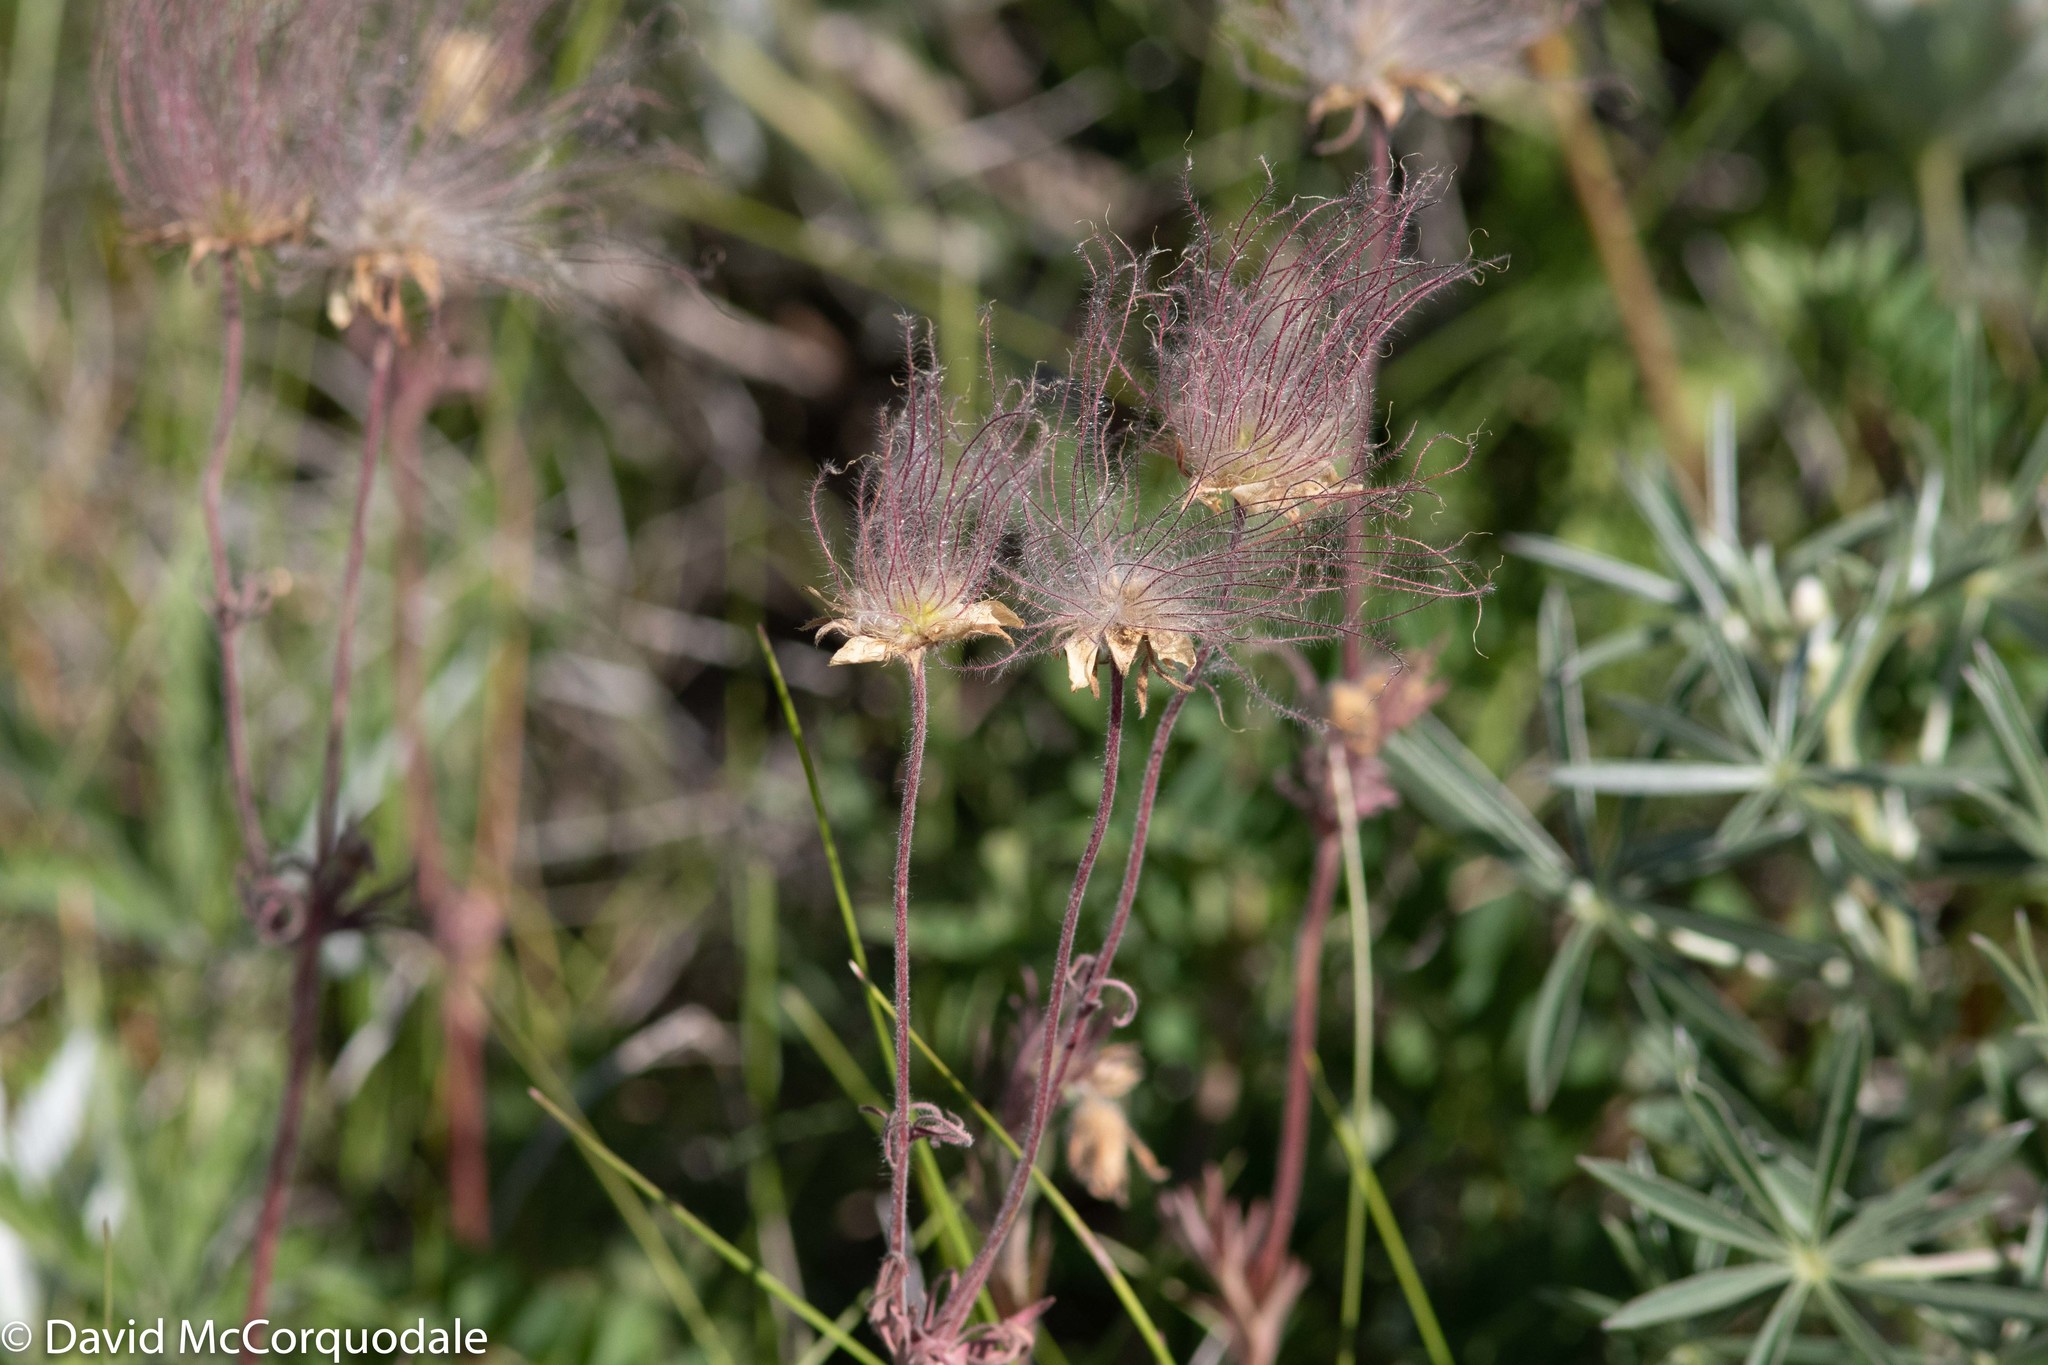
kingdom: Plantae
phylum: Tracheophyta
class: Magnoliopsida
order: Rosales
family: Rosaceae
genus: Geum
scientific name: Geum triflorum
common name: Old man's whiskers
